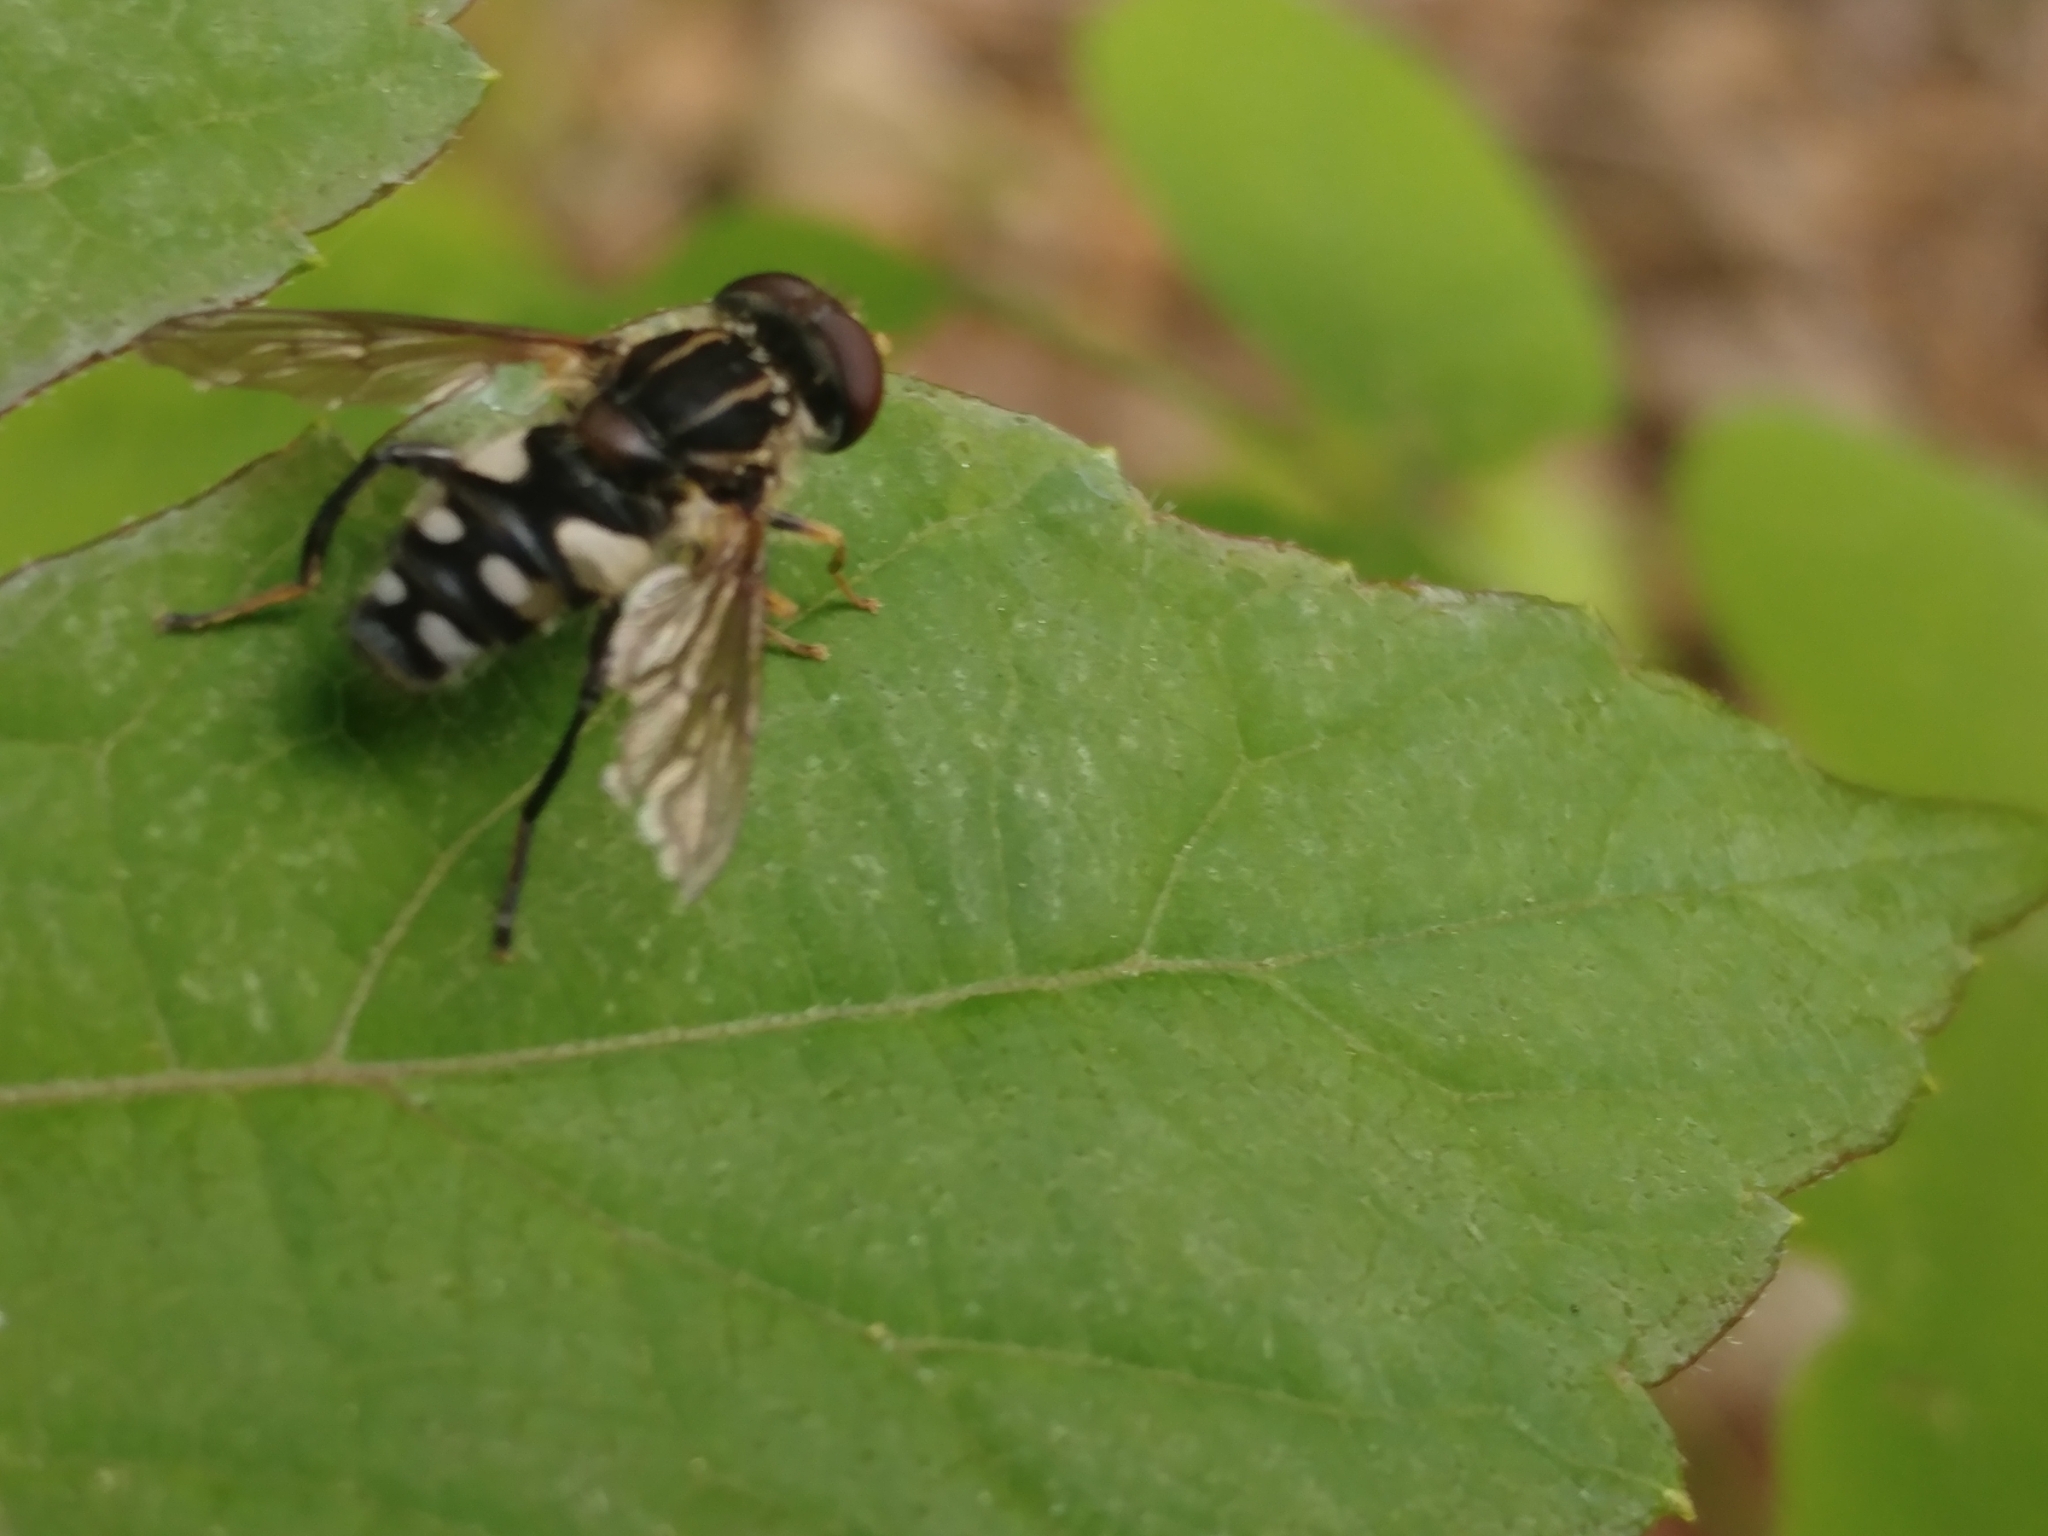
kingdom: Animalia
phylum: Arthropoda
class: Insecta
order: Diptera
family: Syrphidae
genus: Parhelophilus
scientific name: Parhelophilus flavifacies
